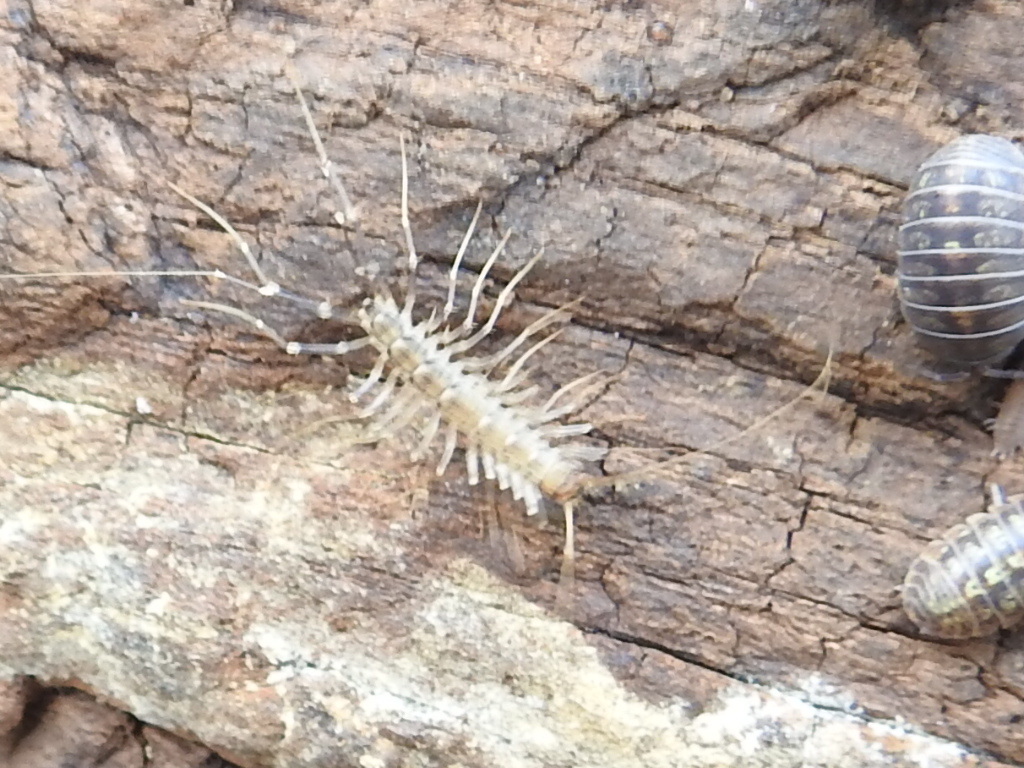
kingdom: Animalia
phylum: Arthropoda
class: Chilopoda
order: Scutigeromorpha
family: Scutigeridae
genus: Scutigera
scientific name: Scutigera coleoptrata
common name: House centipede
